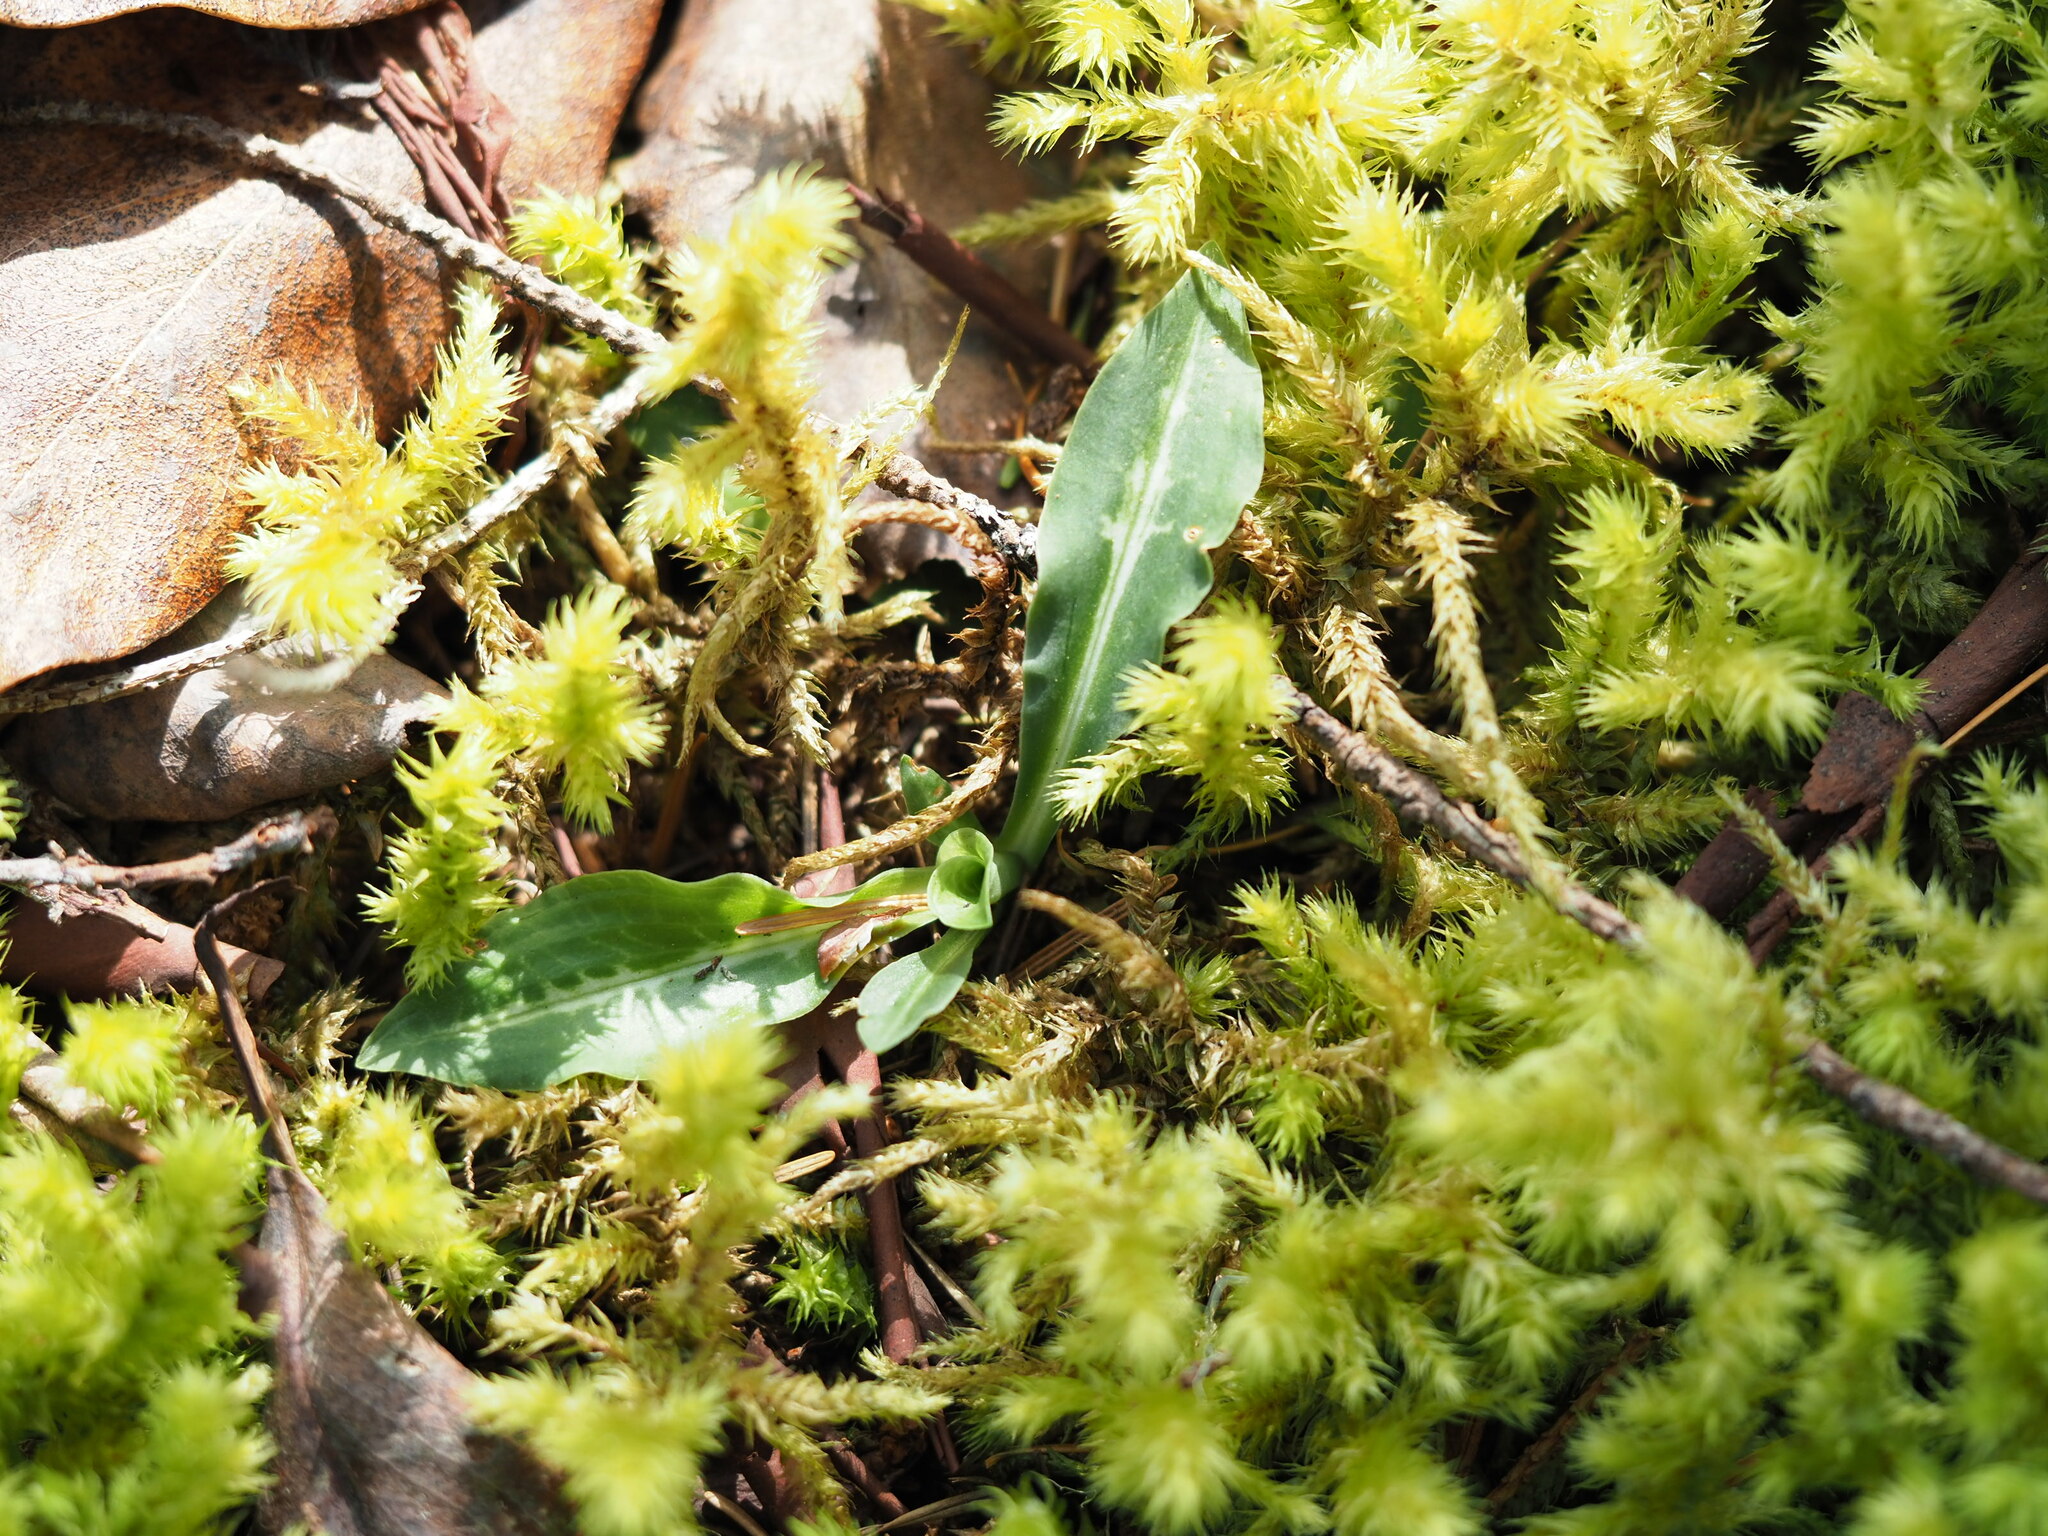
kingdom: Plantae
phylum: Tracheophyta
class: Liliopsida
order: Asparagales
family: Orchidaceae
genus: Goodyera
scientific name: Goodyera oblongifolia
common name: Giant rattlesnake-plantain
